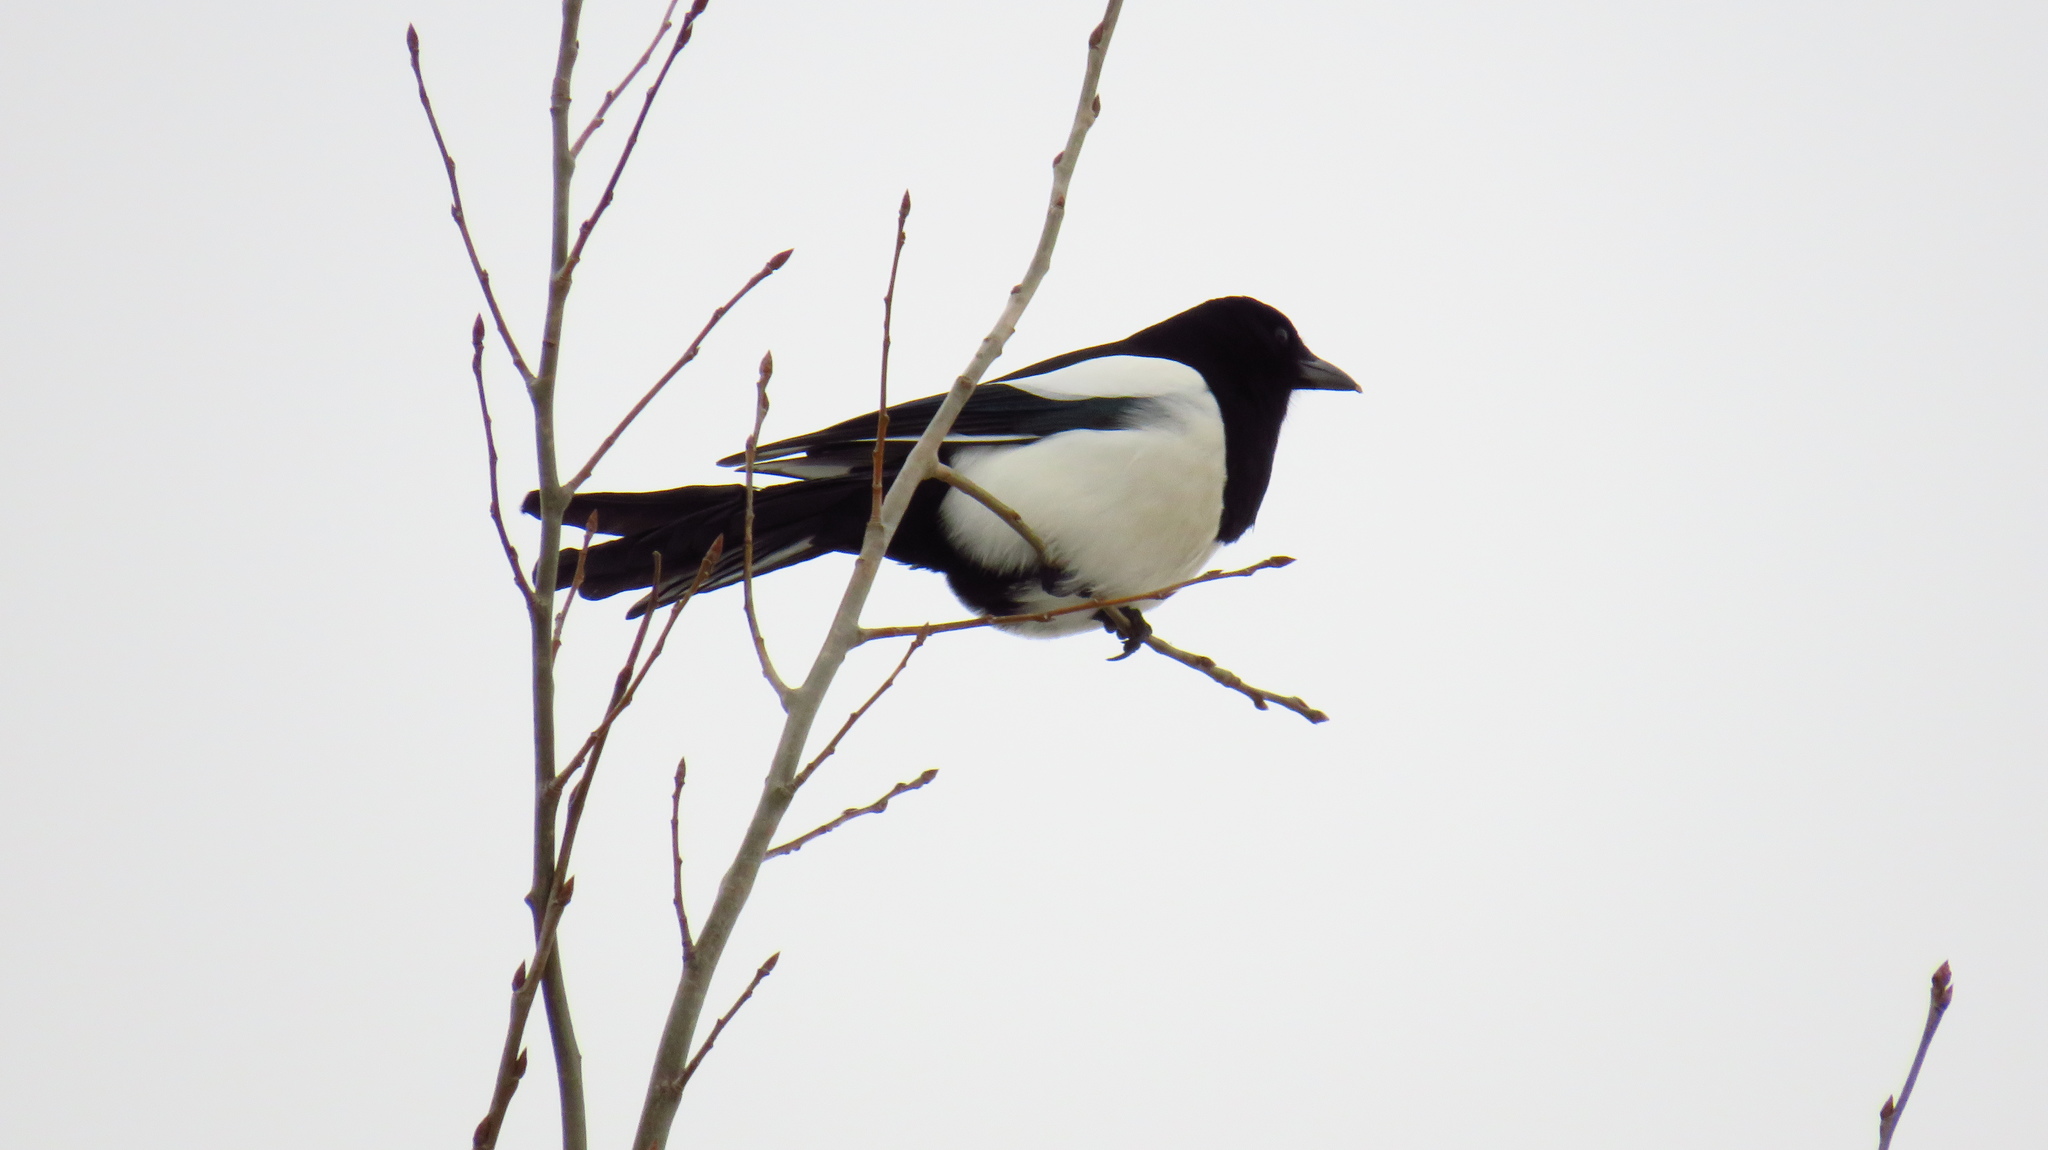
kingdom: Animalia
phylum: Chordata
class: Aves
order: Passeriformes
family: Corvidae
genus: Pica
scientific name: Pica pica
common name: Eurasian magpie
